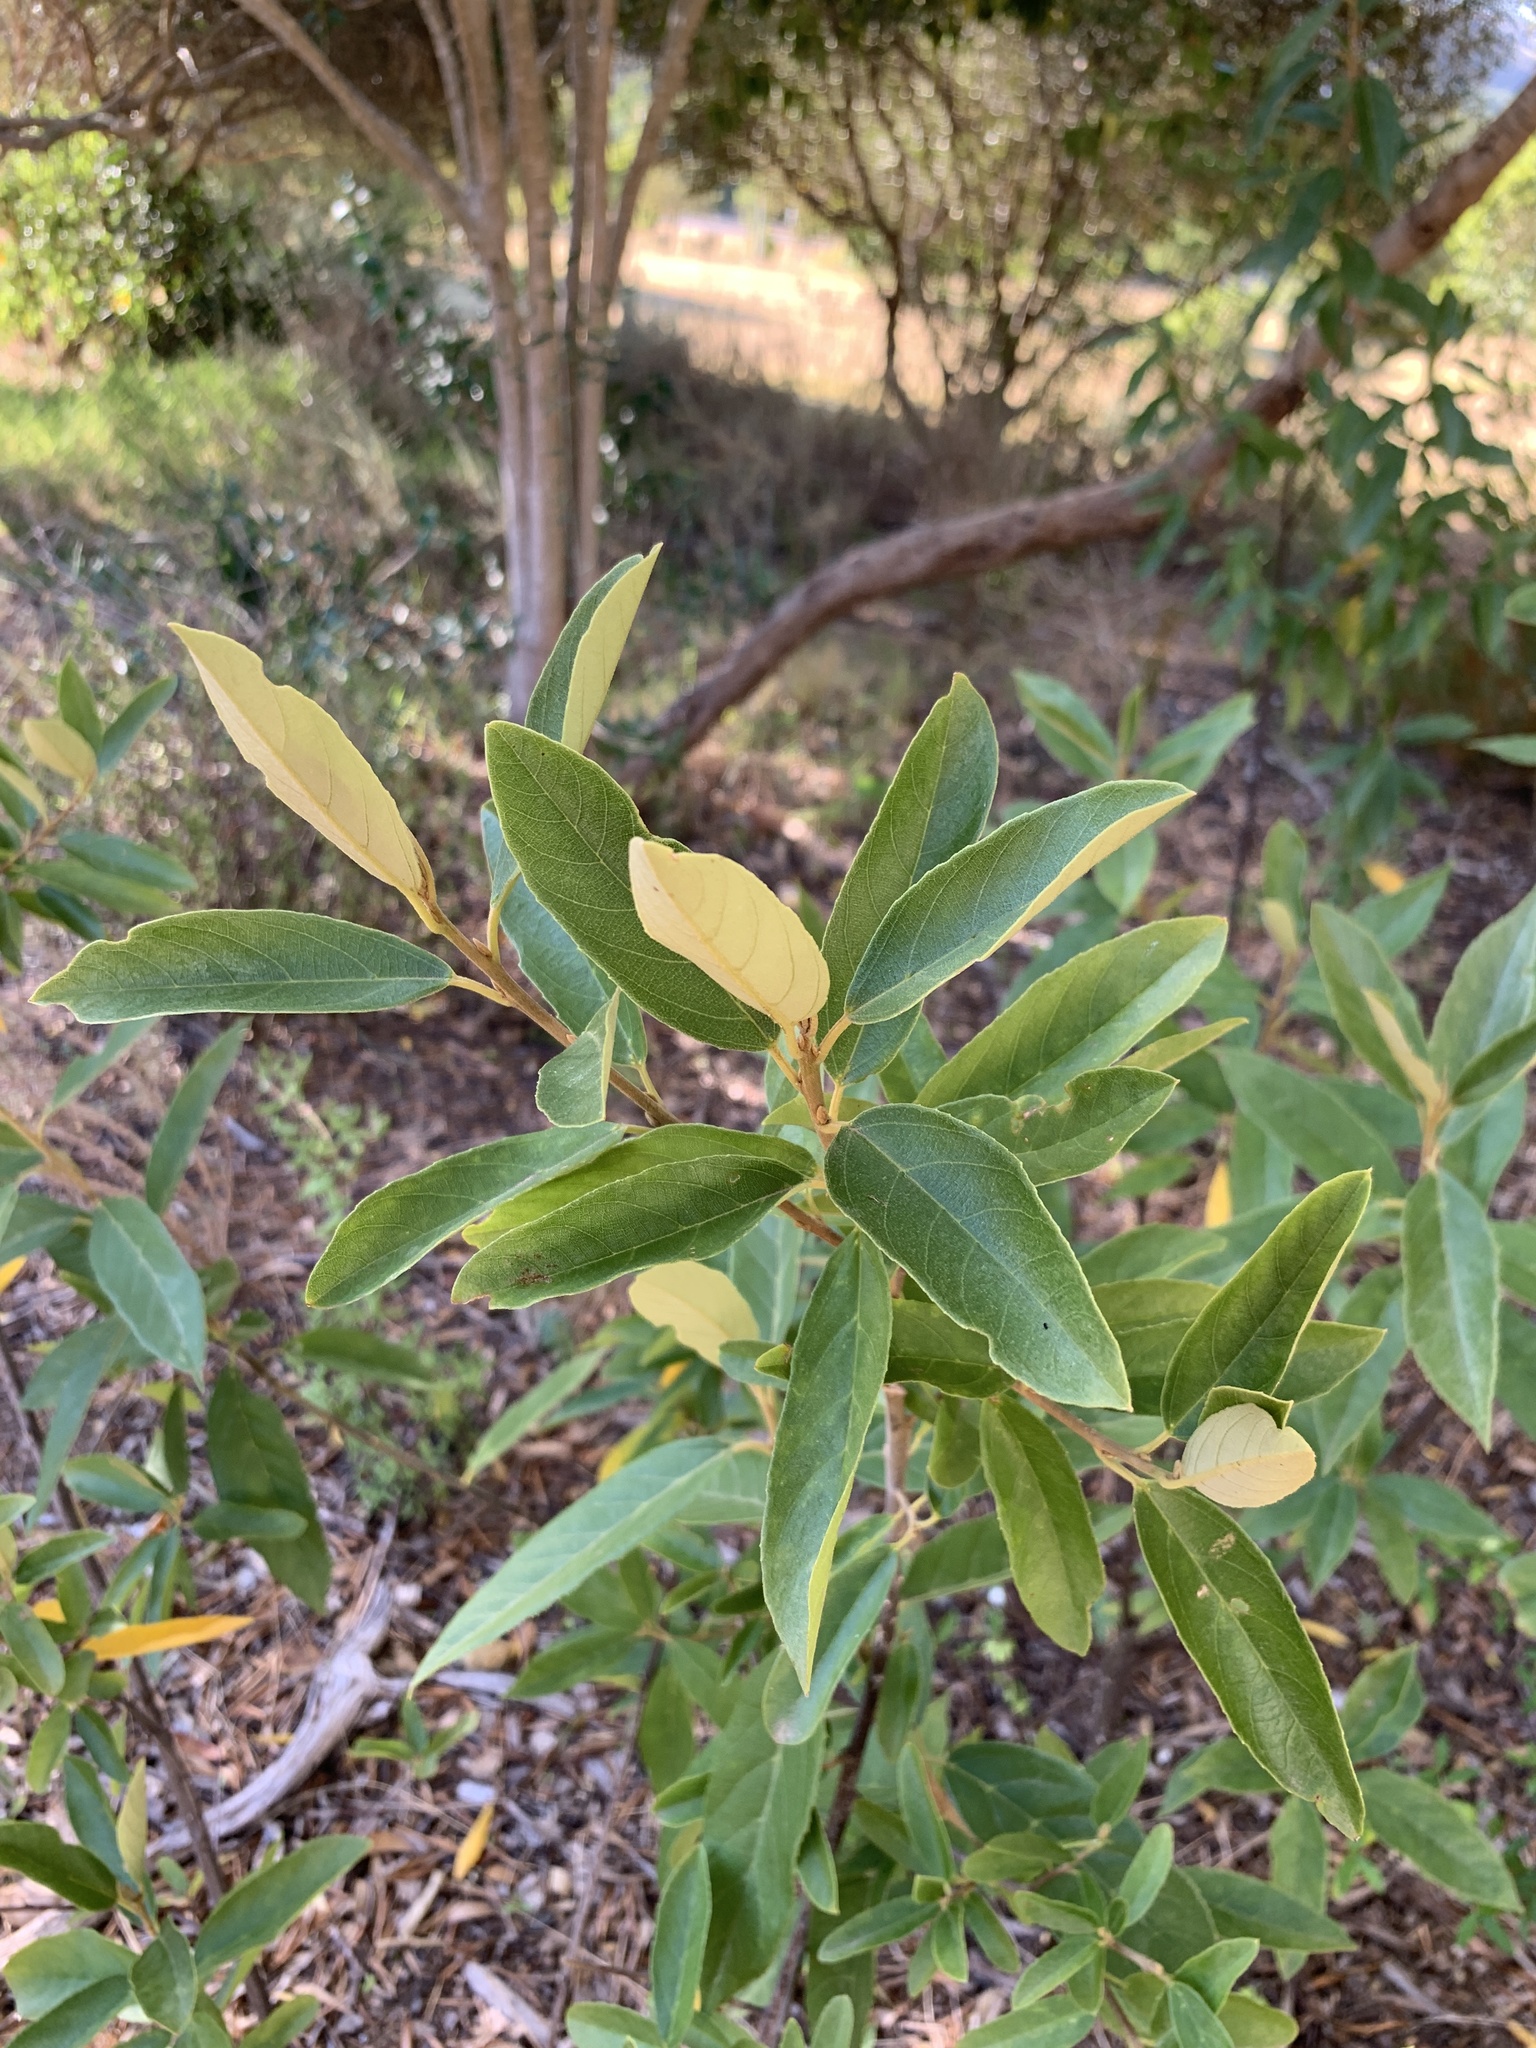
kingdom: Plantae
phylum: Tracheophyta
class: Magnoliopsida
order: Malpighiales
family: Achariaceae
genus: Kiggelaria
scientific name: Kiggelaria africana
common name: Wild peach
